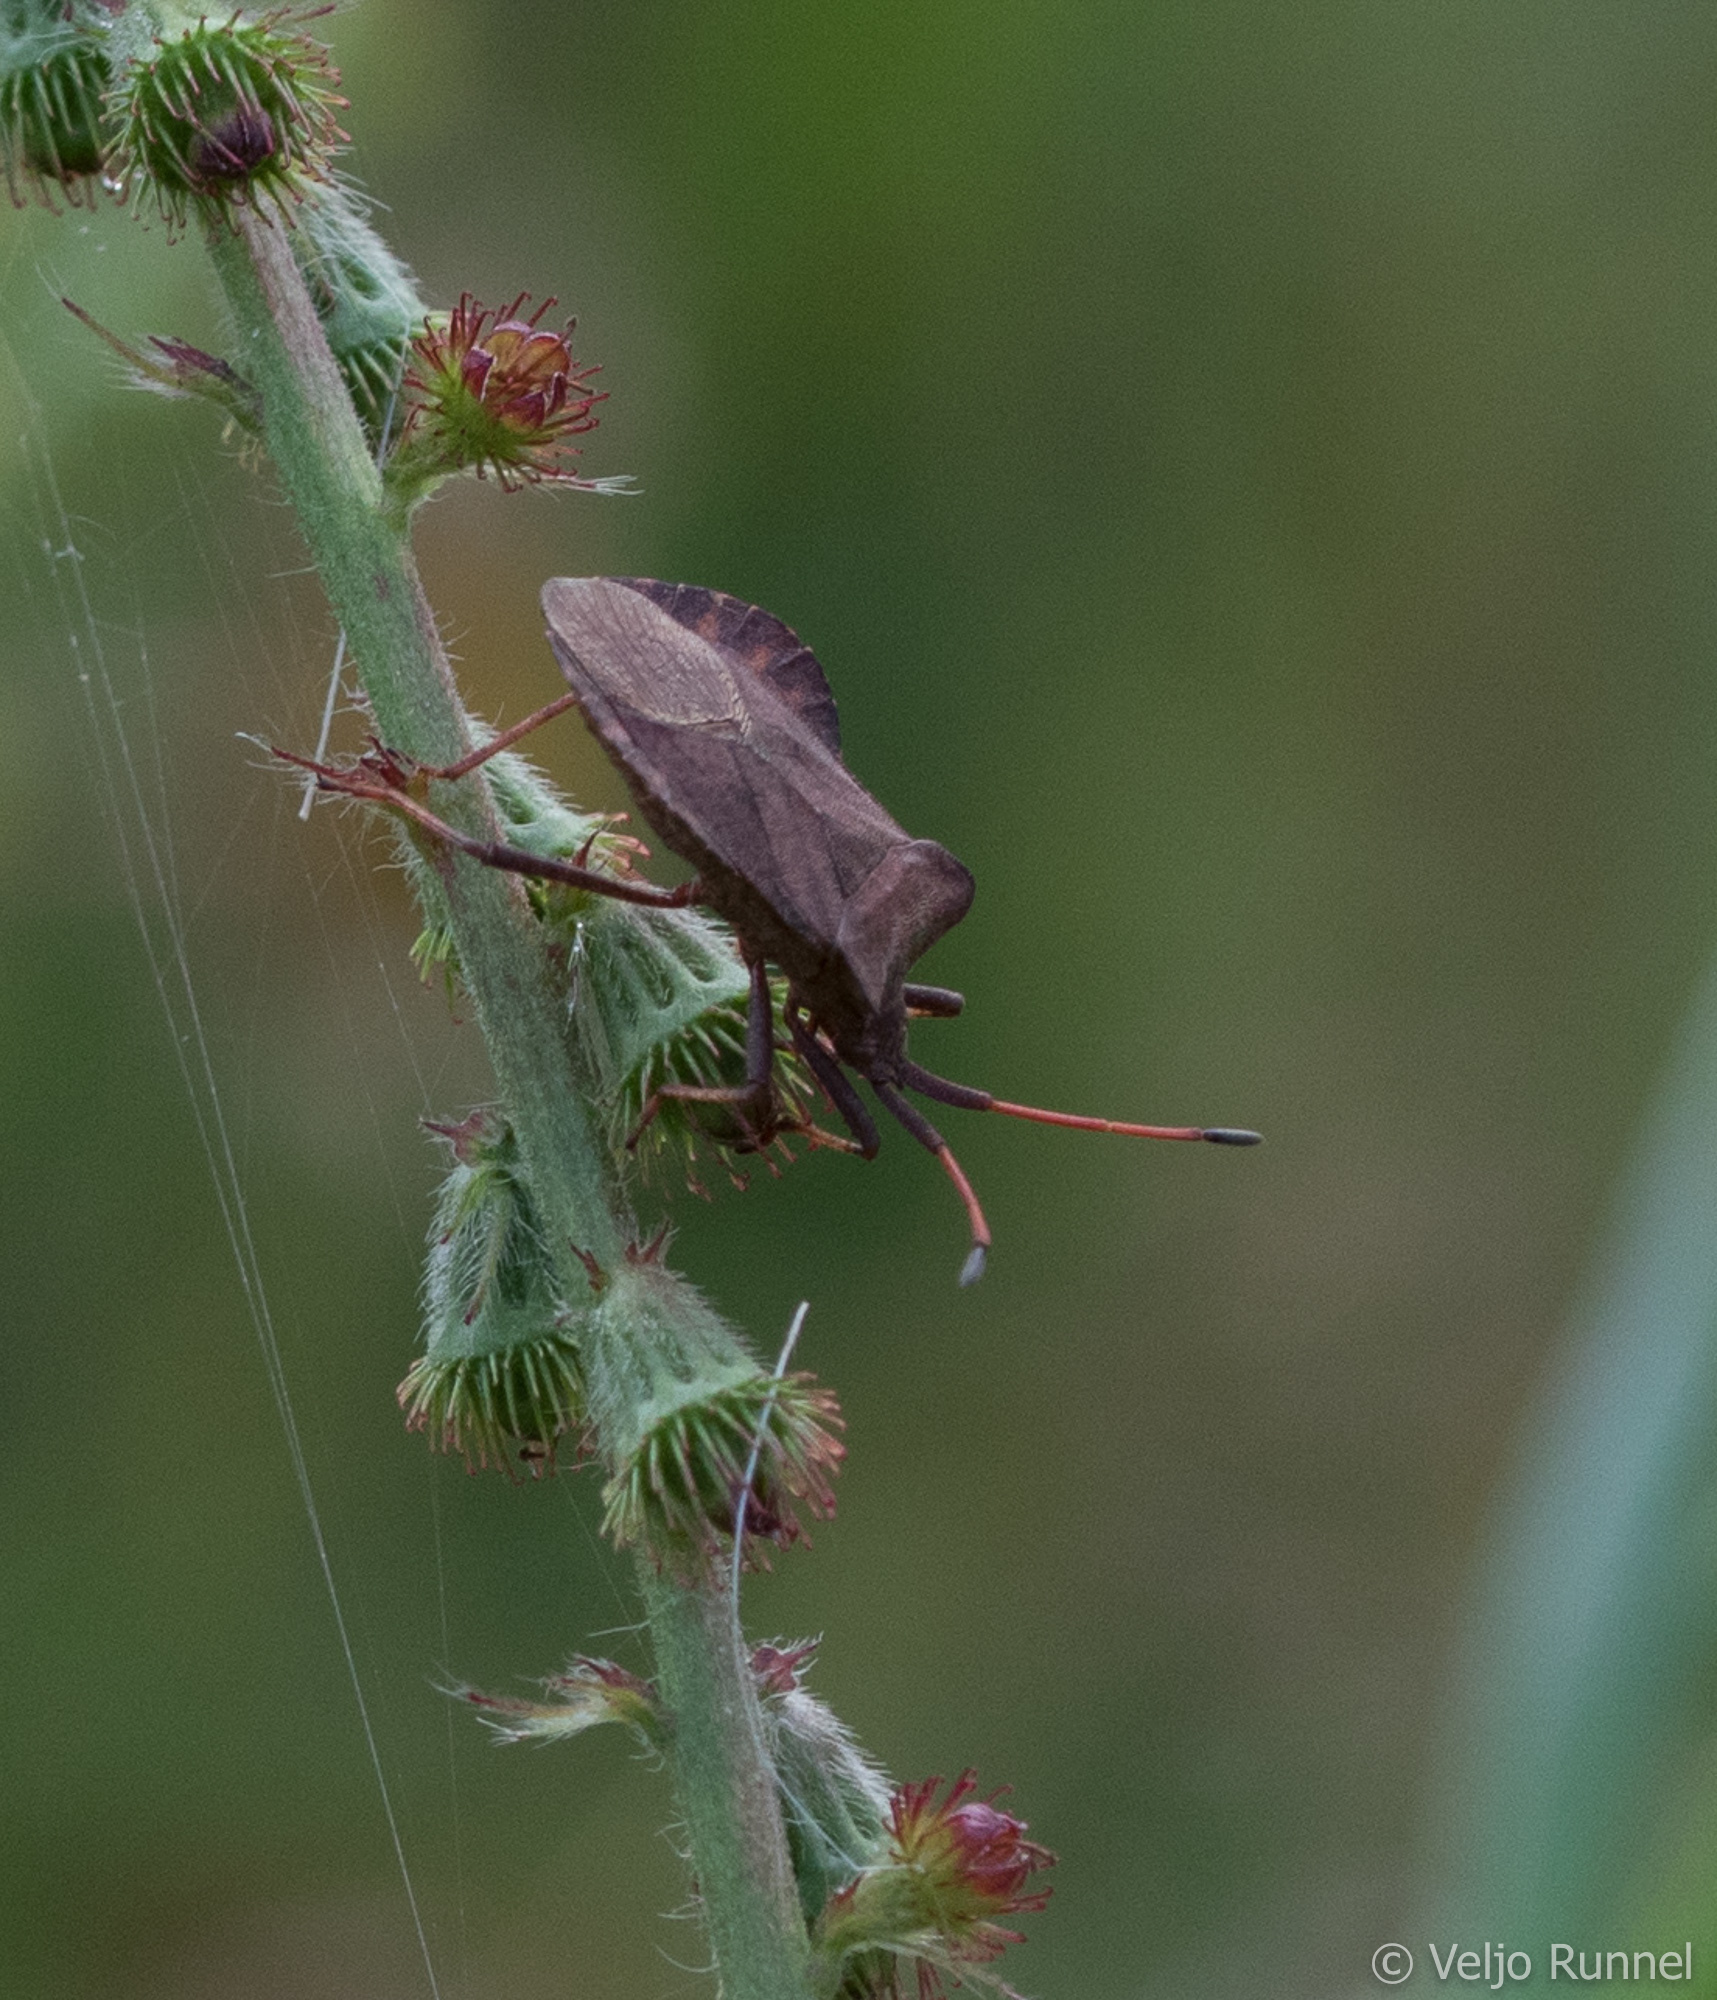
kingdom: Animalia
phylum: Arthropoda
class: Insecta
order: Hemiptera
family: Coreidae
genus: Coreus
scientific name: Coreus marginatus
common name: Dock bug
